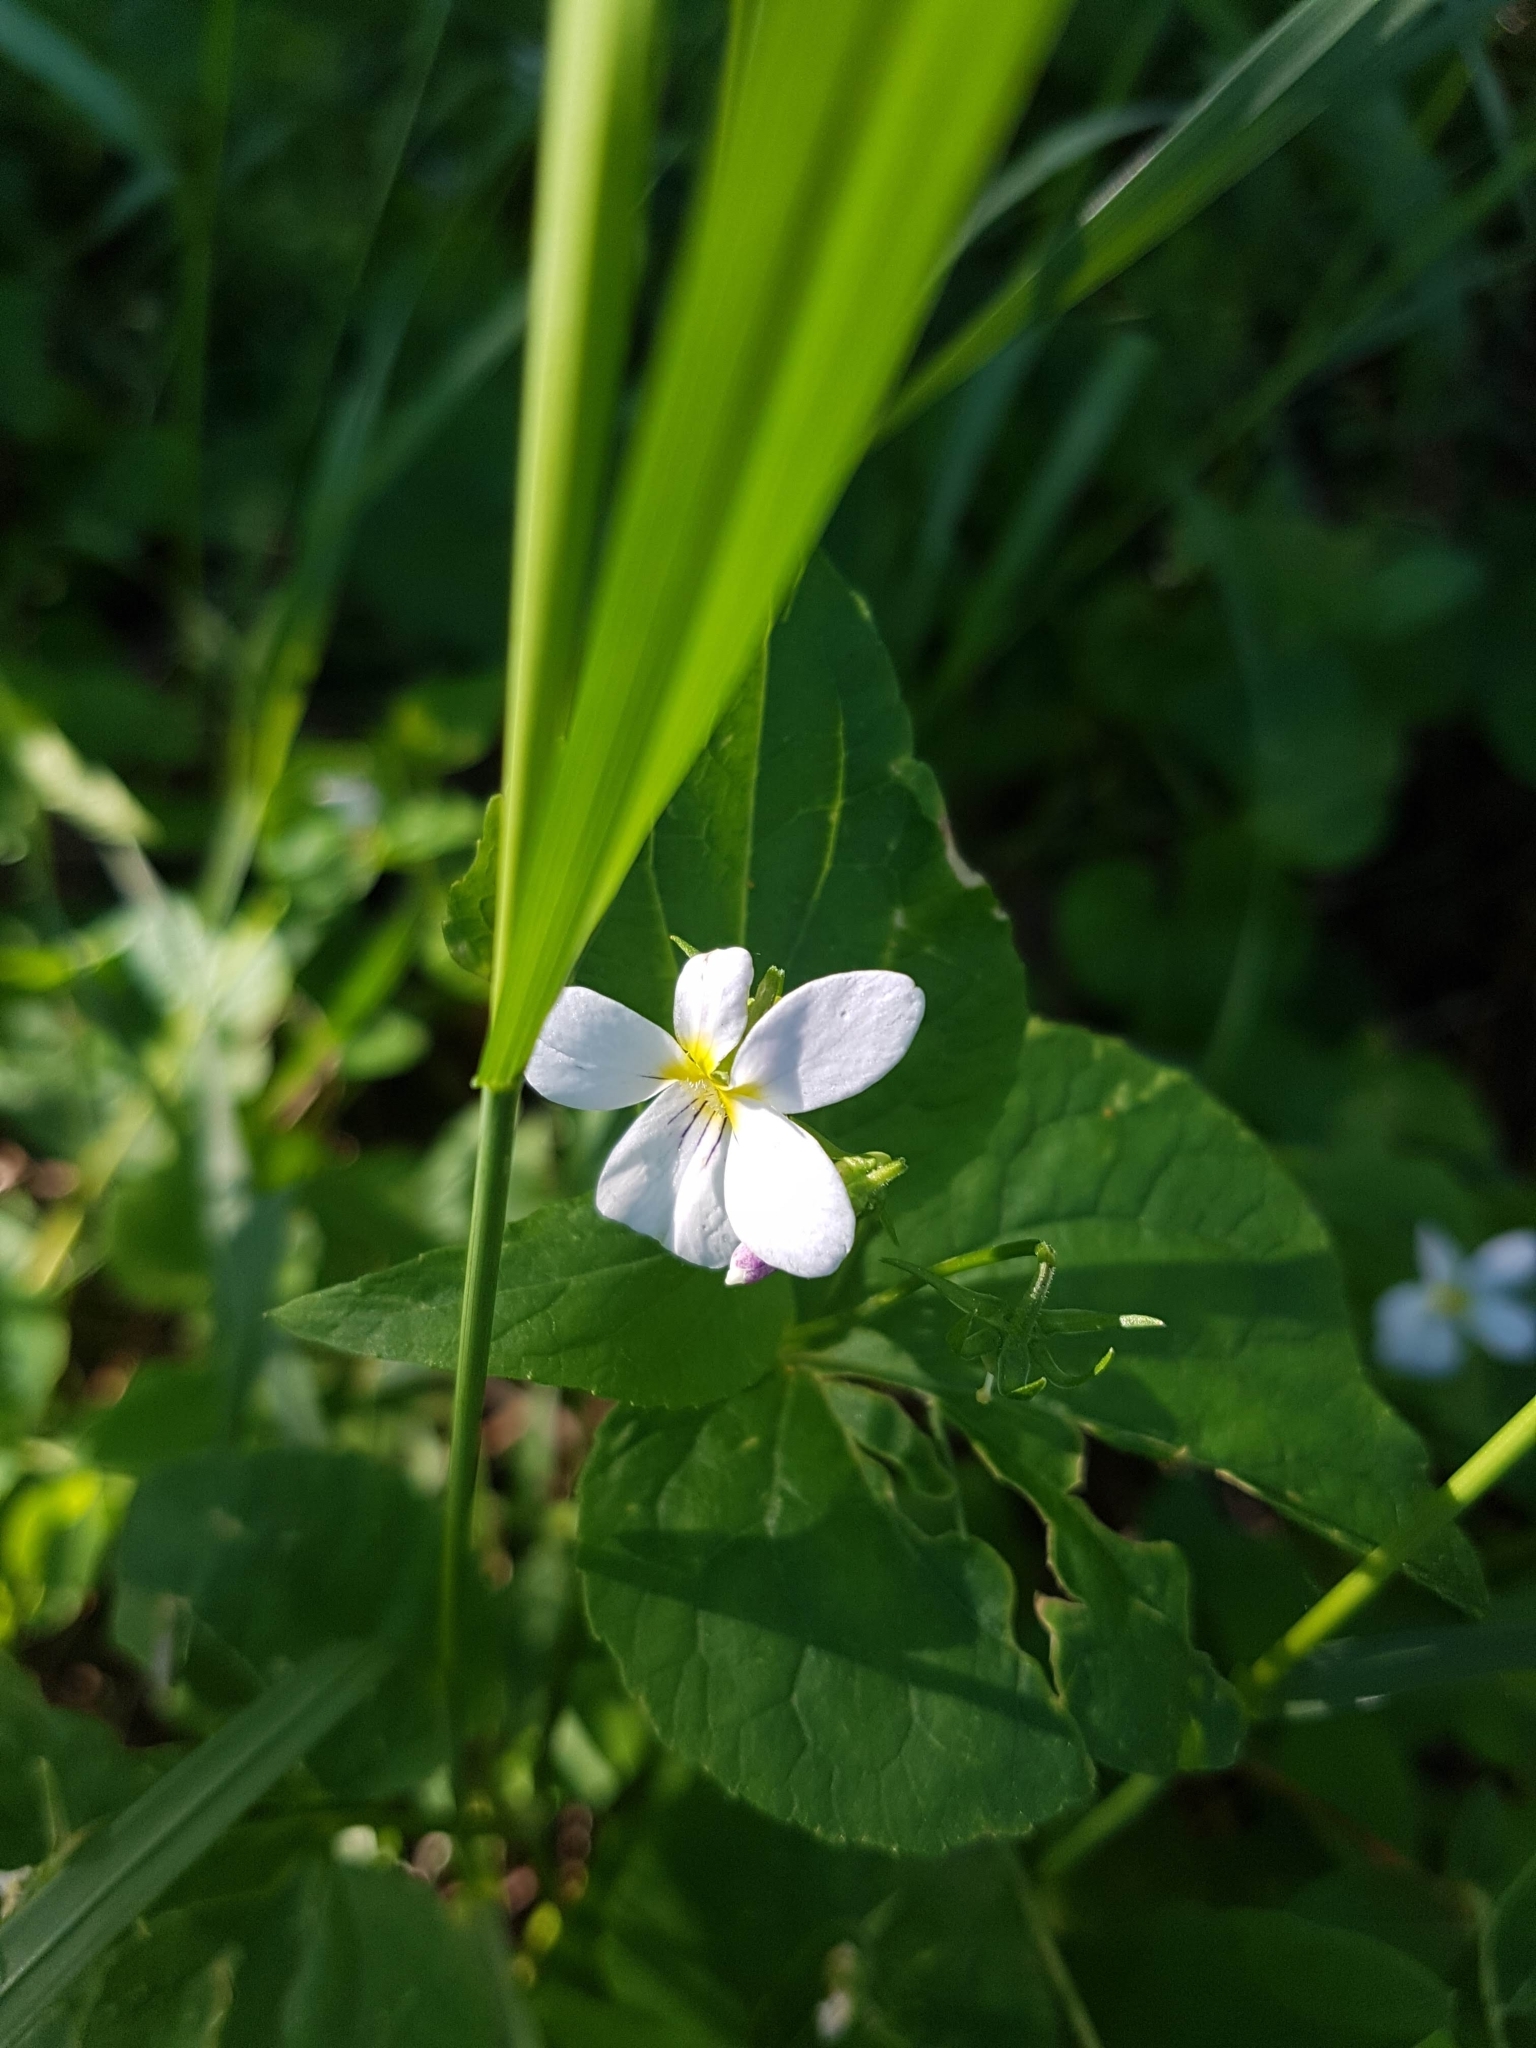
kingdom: Plantae
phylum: Tracheophyta
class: Magnoliopsida
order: Malpighiales
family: Violaceae
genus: Viola
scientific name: Viola canadensis
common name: Canada violet
